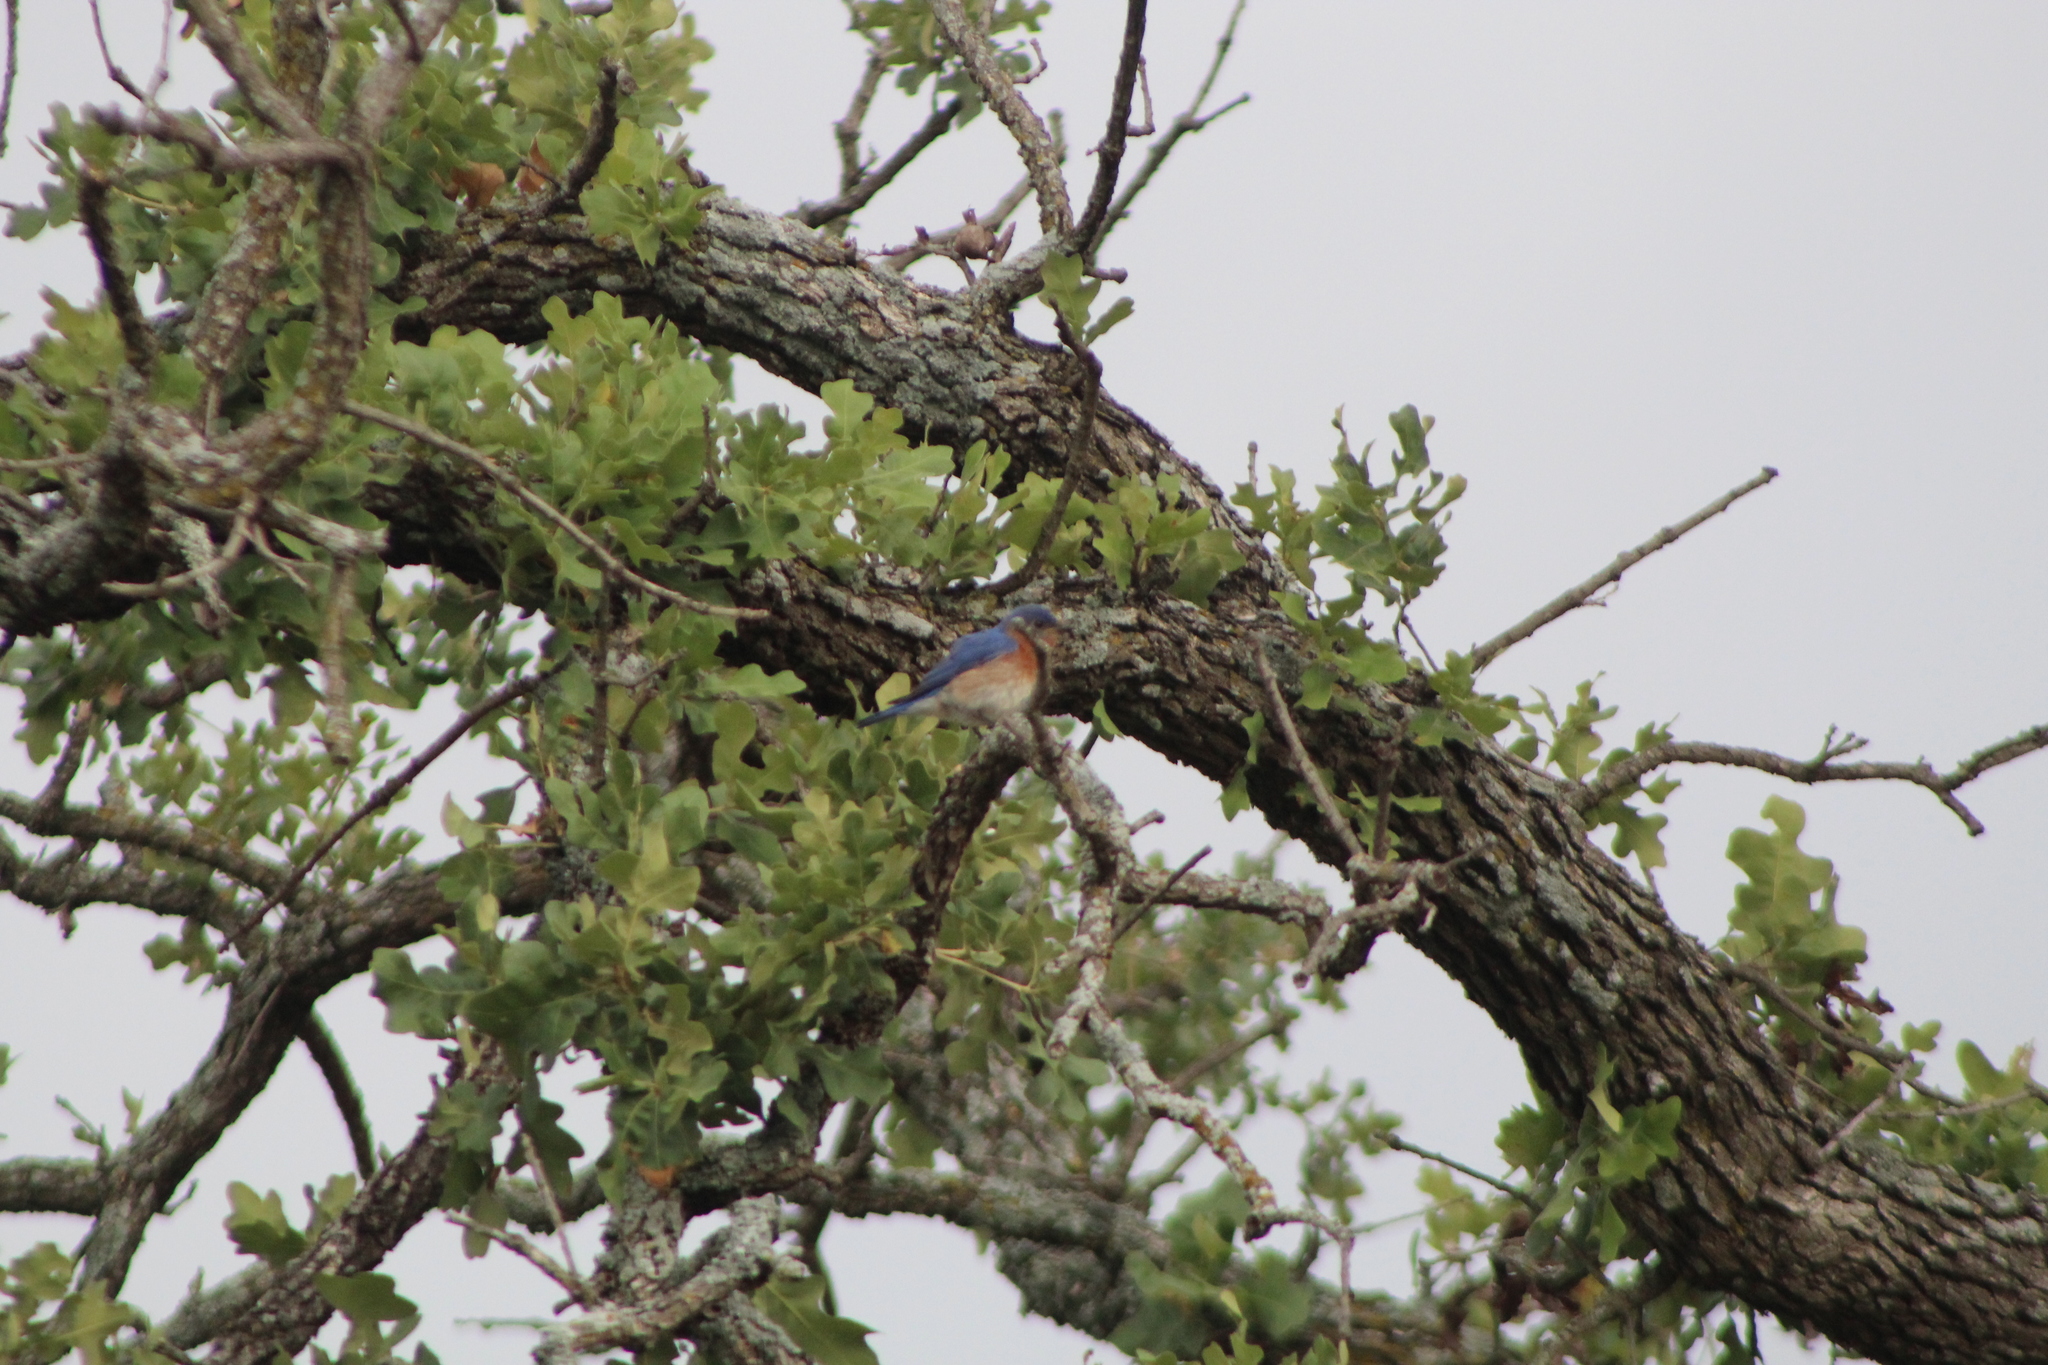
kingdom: Animalia
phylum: Chordata
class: Aves
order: Passeriformes
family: Turdidae
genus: Sialia
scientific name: Sialia sialis
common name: Eastern bluebird
